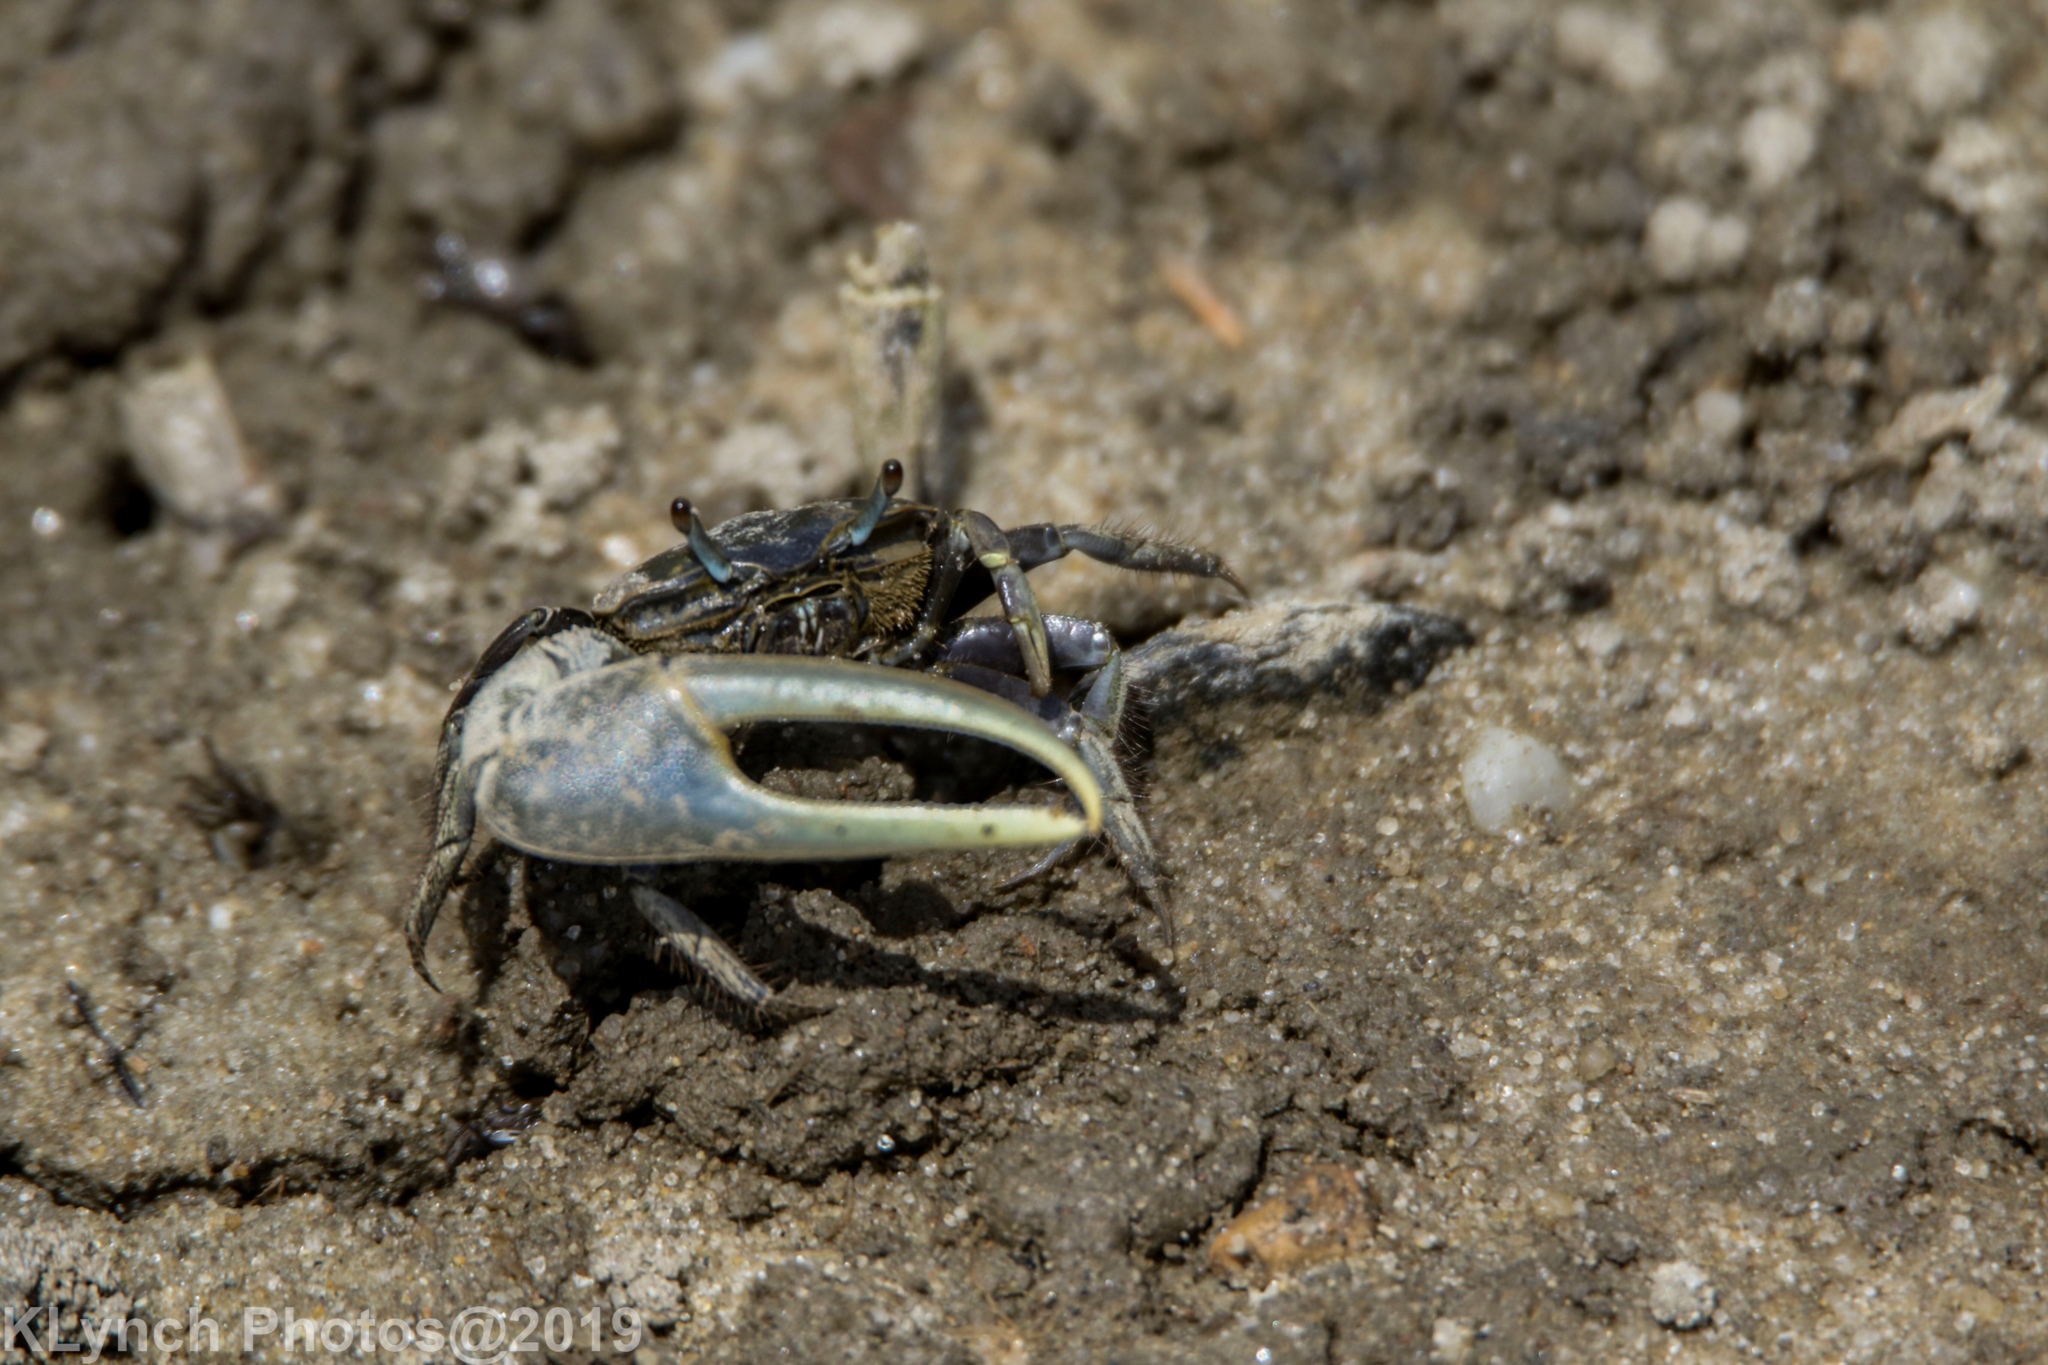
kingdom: Animalia
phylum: Arthropoda
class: Malacostraca
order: Decapoda
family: Ocypodidae
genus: Minuca
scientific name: Minuca pugnax
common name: Mud fiddler crab
